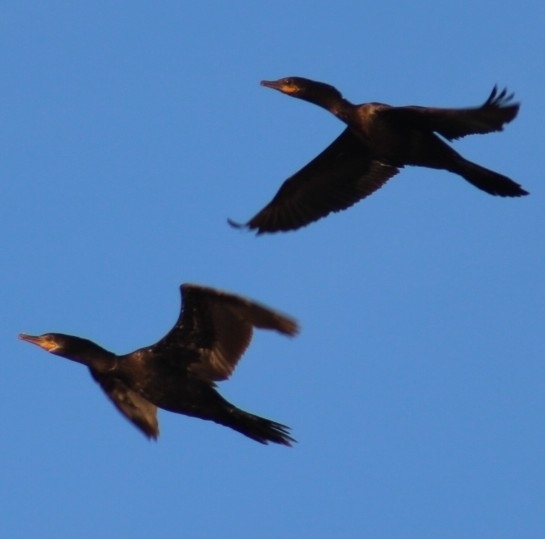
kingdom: Animalia
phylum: Chordata
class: Aves
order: Suliformes
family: Phalacrocoracidae
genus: Phalacrocorax
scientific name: Phalacrocorax auritus
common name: Double-crested cormorant
